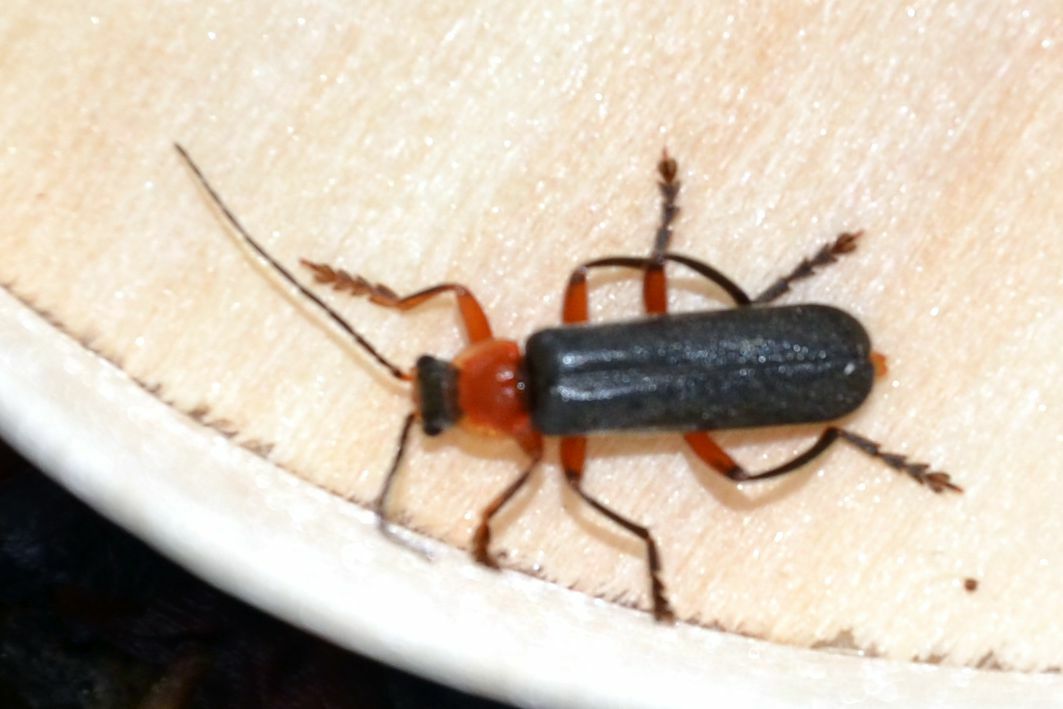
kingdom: Animalia
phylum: Arthropoda
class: Insecta
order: Coleoptera
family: Cantharidae
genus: Cantharis
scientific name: Cantharis pellucida
